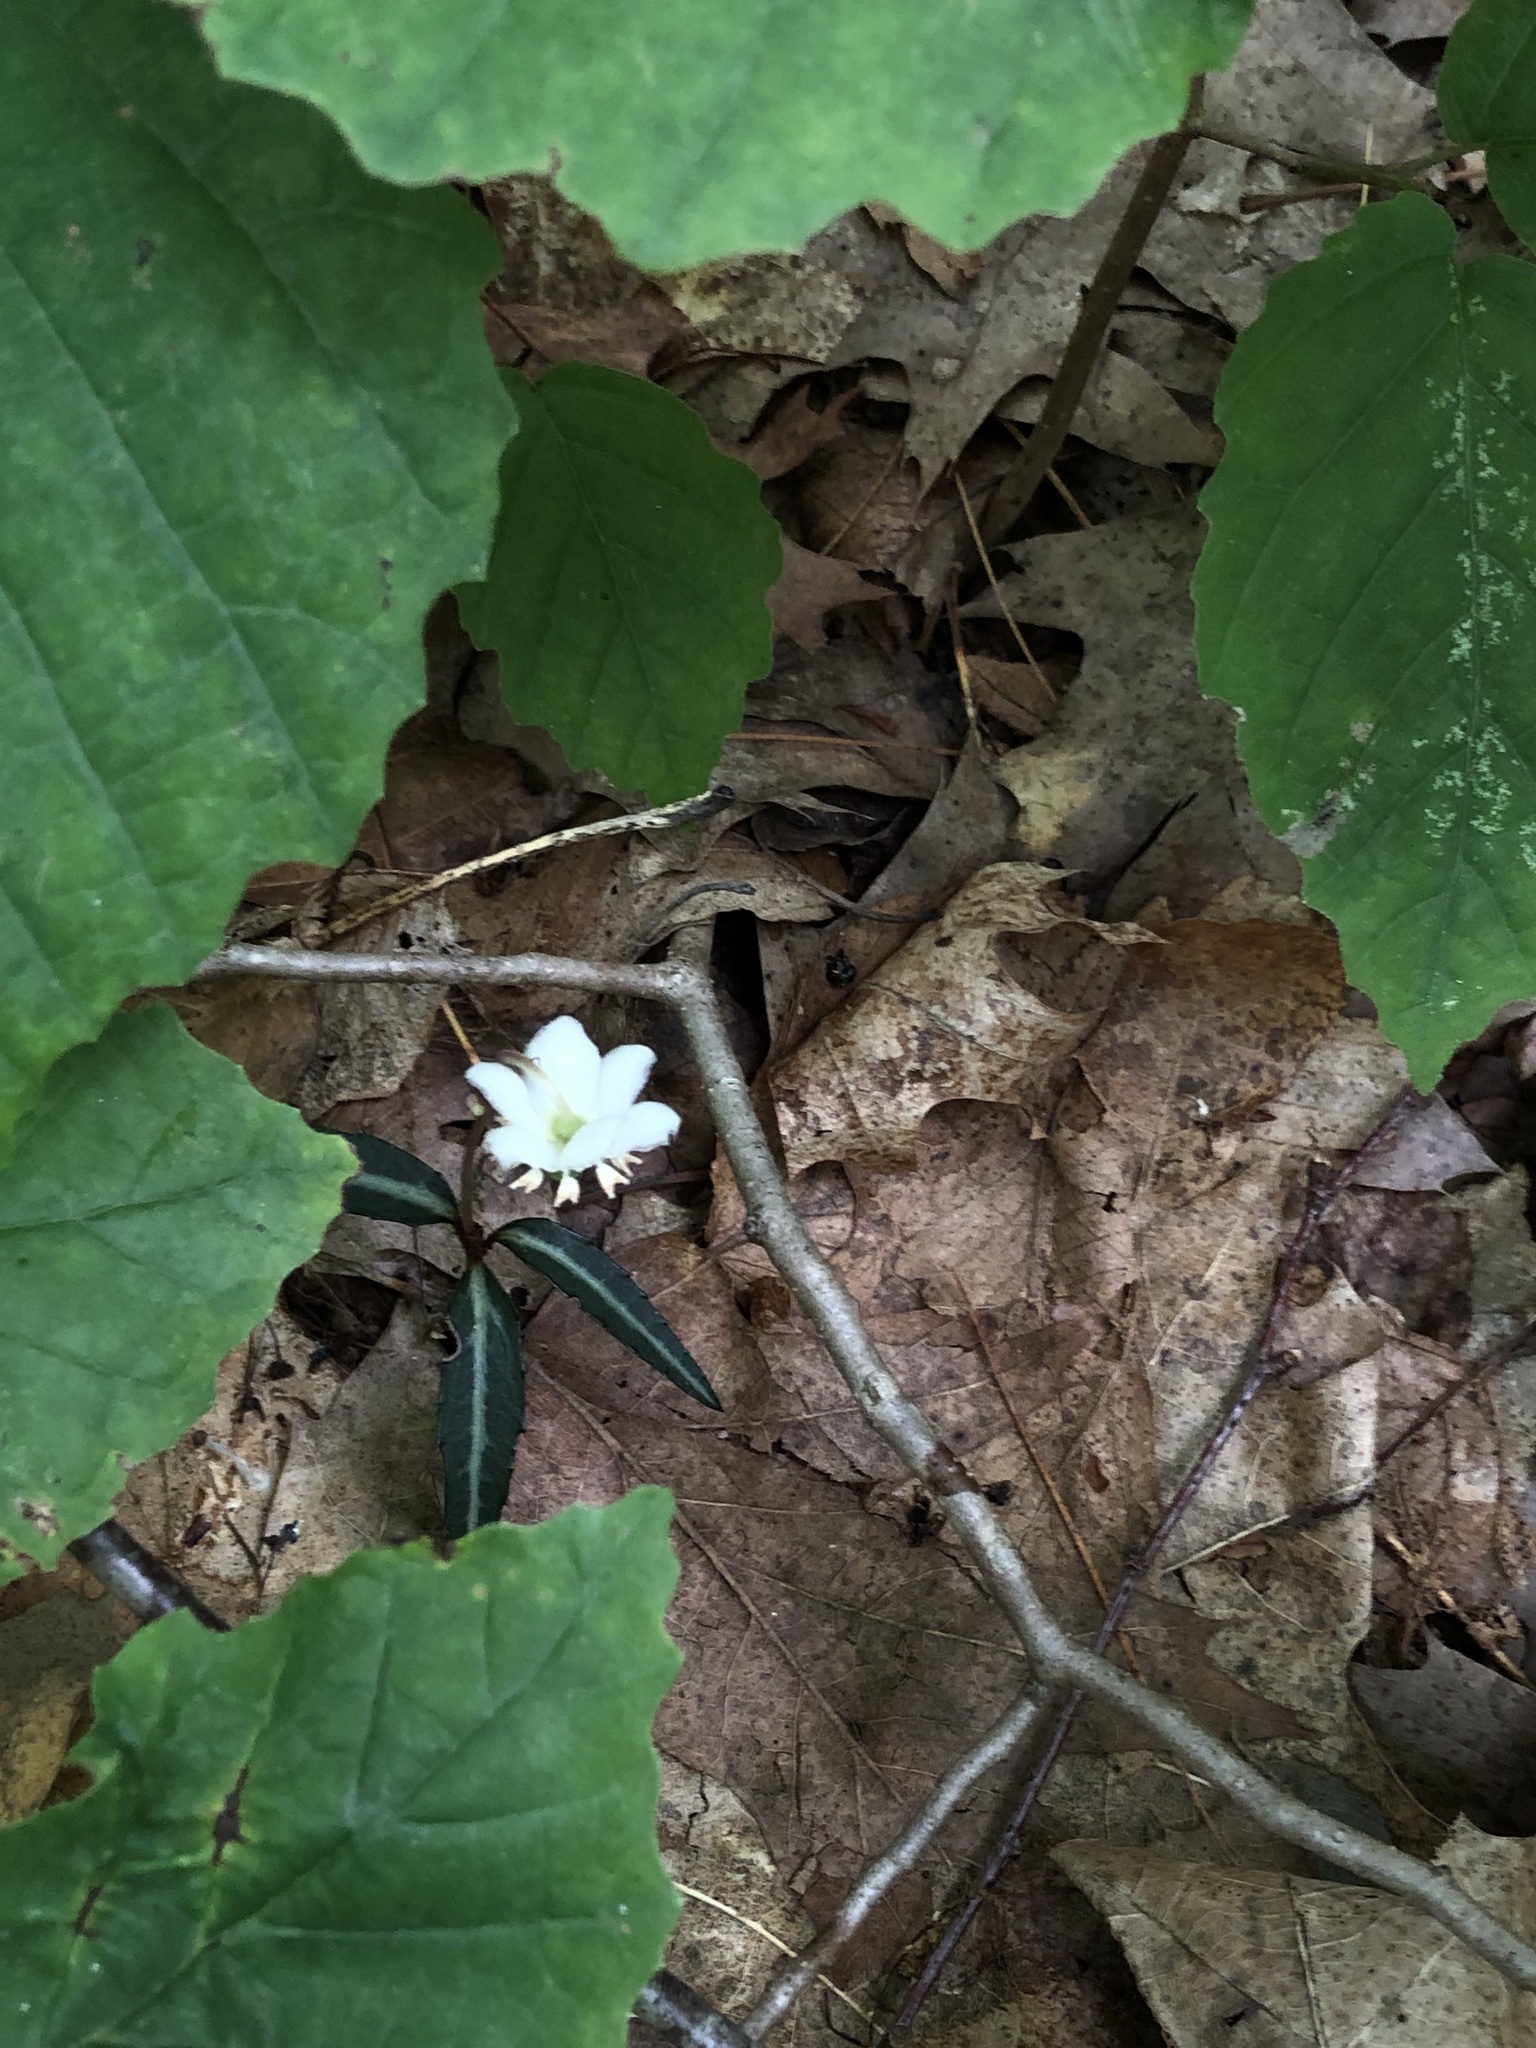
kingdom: Plantae
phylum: Tracheophyta
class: Magnoliopsida
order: Ericales
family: Ericaceae
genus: Chimaphila
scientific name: Chimaphila maculata
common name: Spotted pipsissewa
